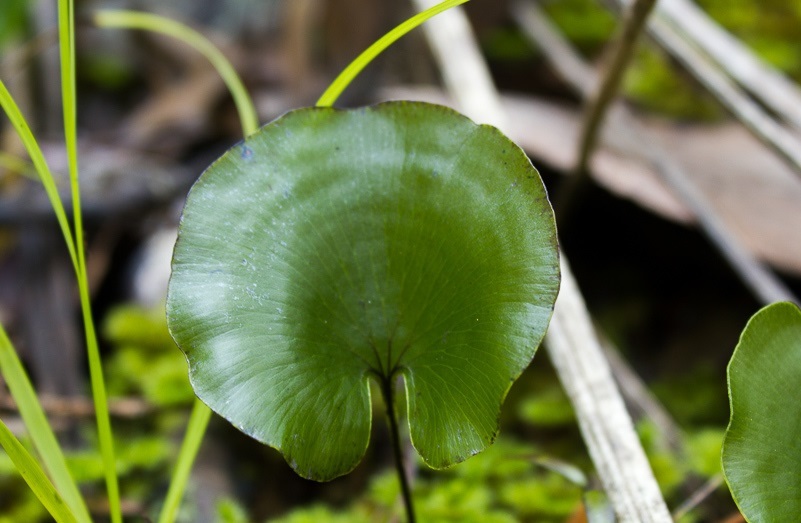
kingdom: Plantae
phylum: Tracheophyta
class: Polypodiopsida
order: Hymenophyllales
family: Hymenophyllaceae
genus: Hymenophyllum
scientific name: Hymenophyllum nephrophyllum
